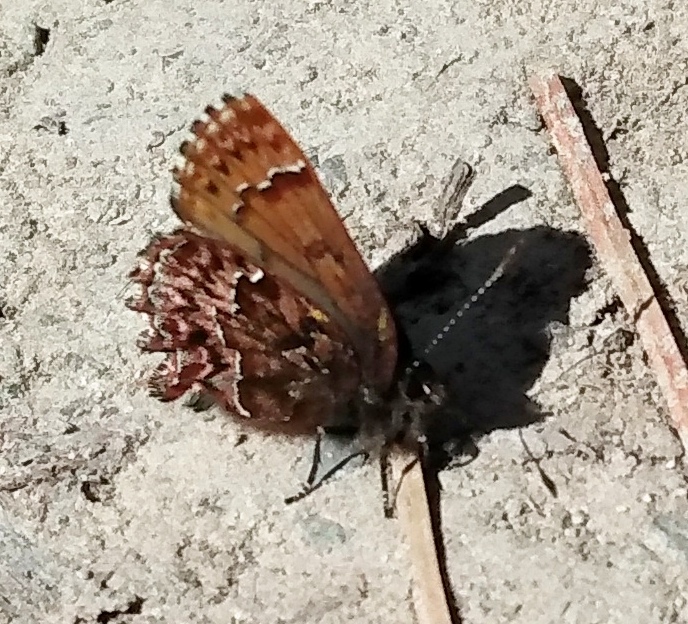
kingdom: Animalia
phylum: Arthropoda
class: Insecta
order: Lepidoptera
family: Lycaenidae
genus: Incisalia
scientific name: Incisalia eryphon
